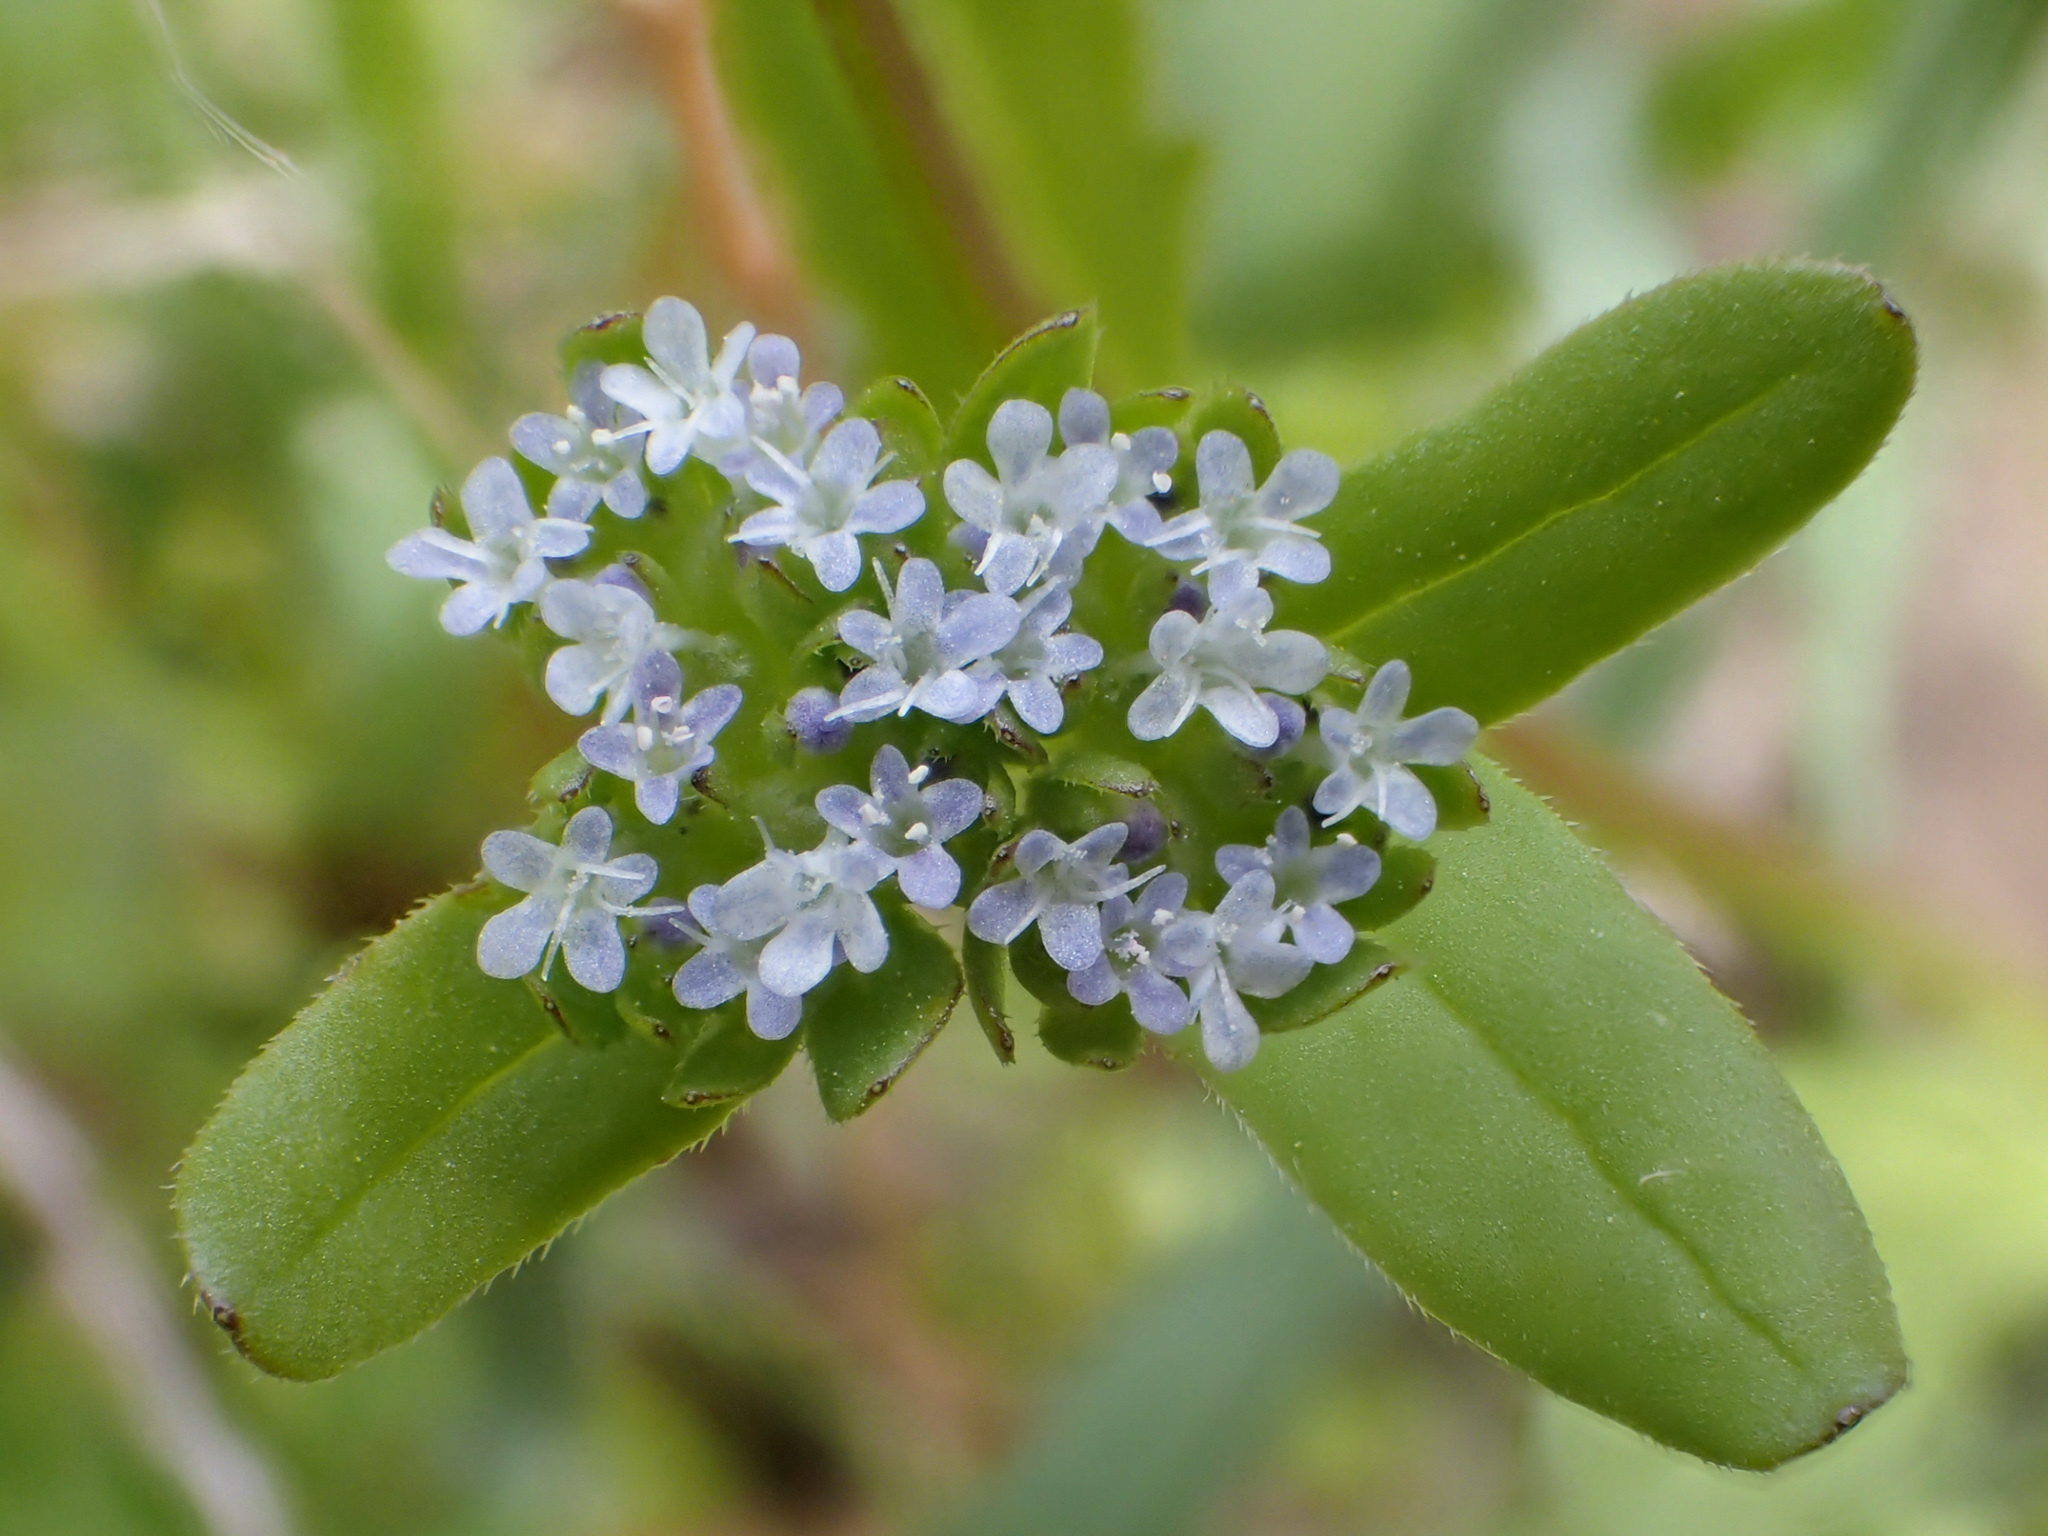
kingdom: Plantae
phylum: Tracheophyta
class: Magnoliopsida
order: Dipsacales
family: Caprifoliaceae
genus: Valerianella
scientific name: Valerianella locusta
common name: Common cornsalad
